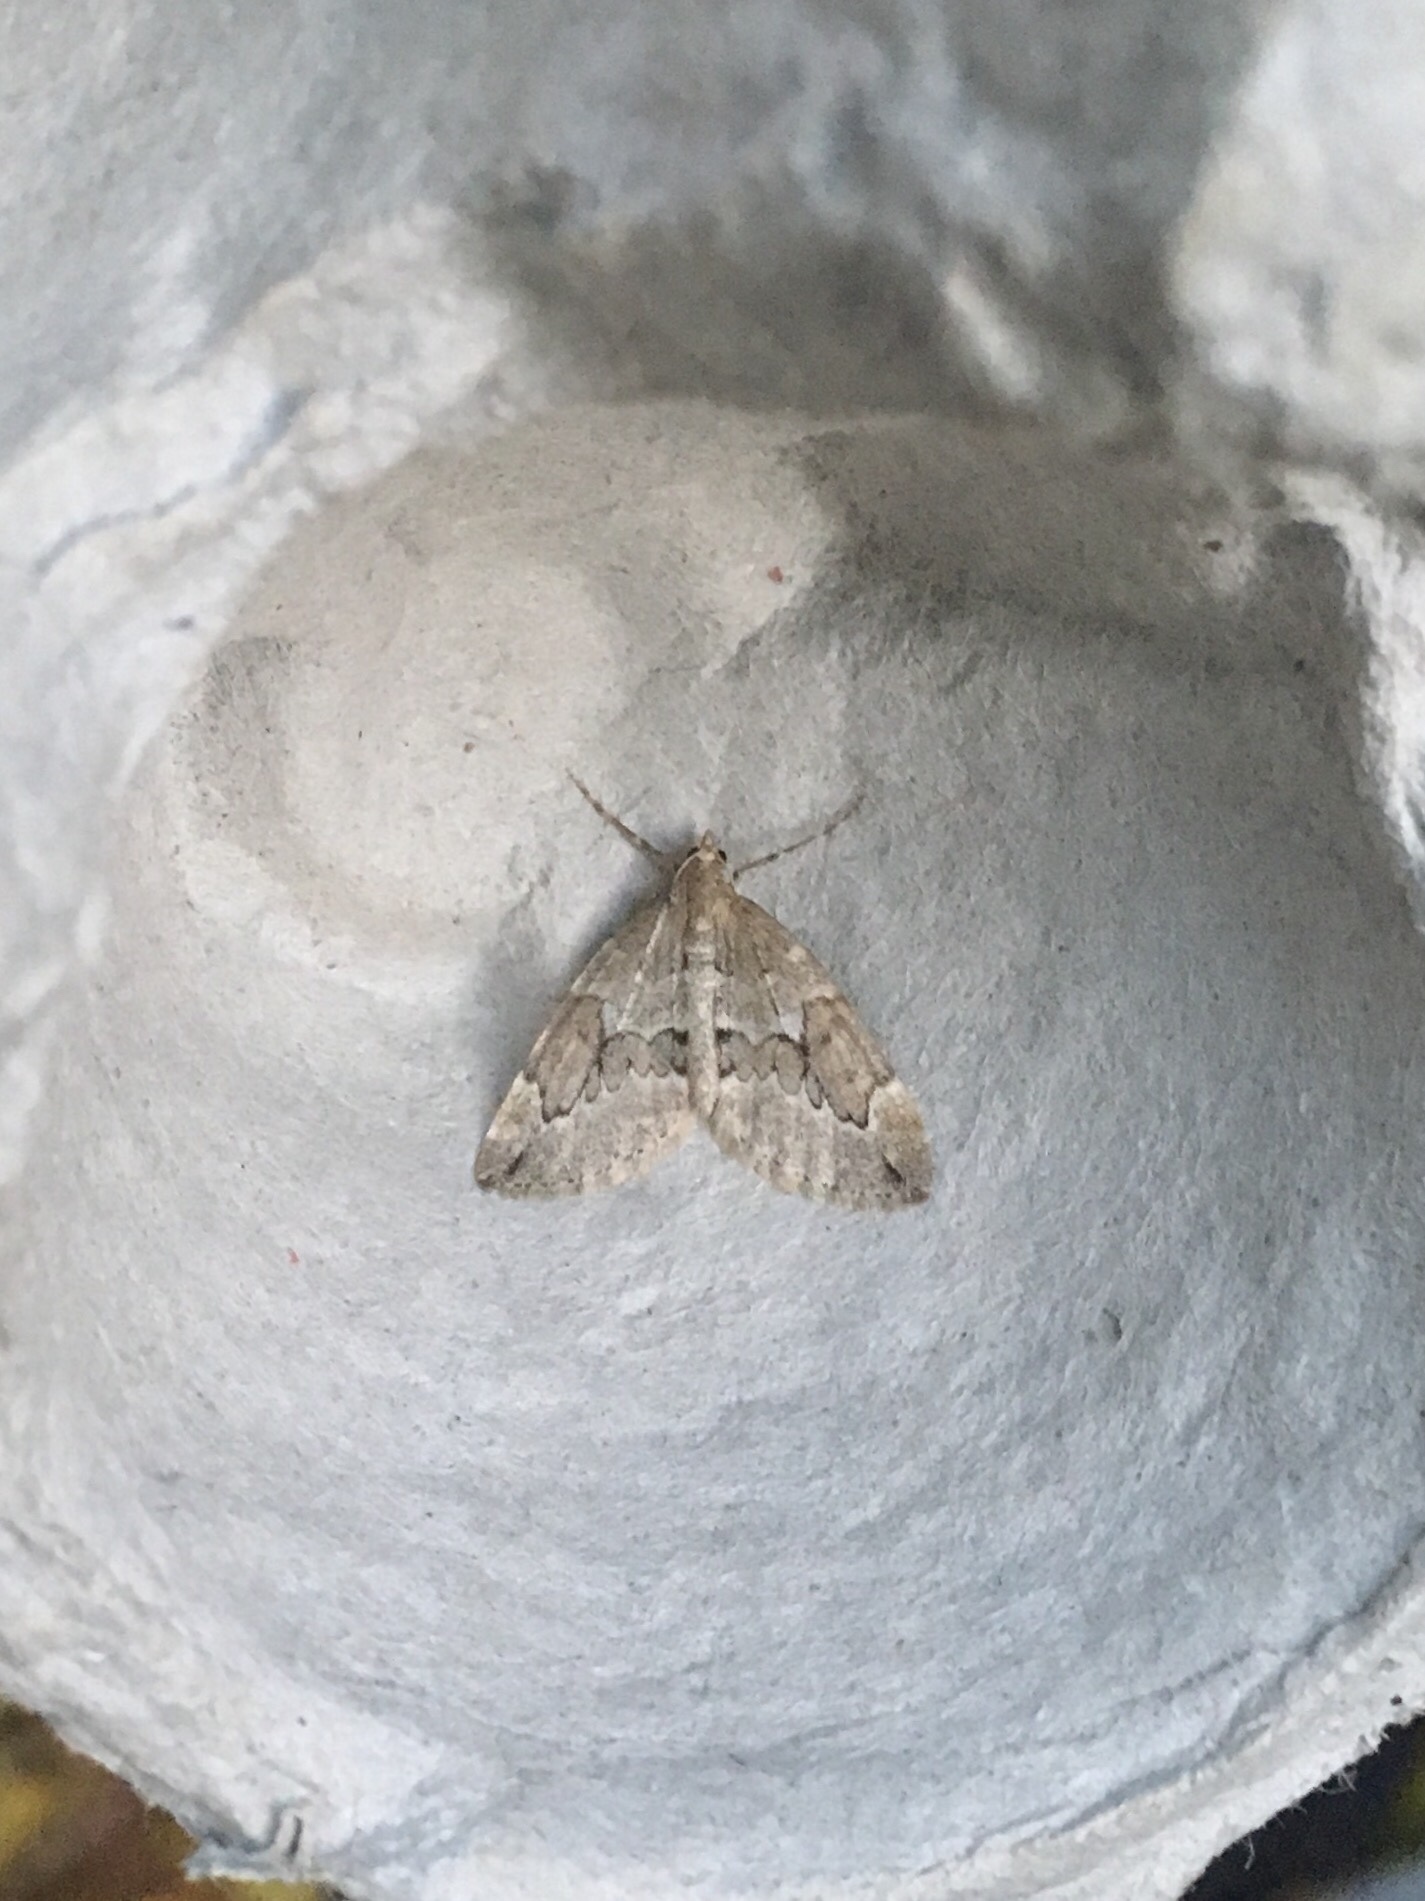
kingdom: Animalia
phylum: Arthropoda
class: Insecta
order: Lepidoptera
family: Geometridae
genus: Thera
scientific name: Thera juniperata
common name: Juniper carpet
